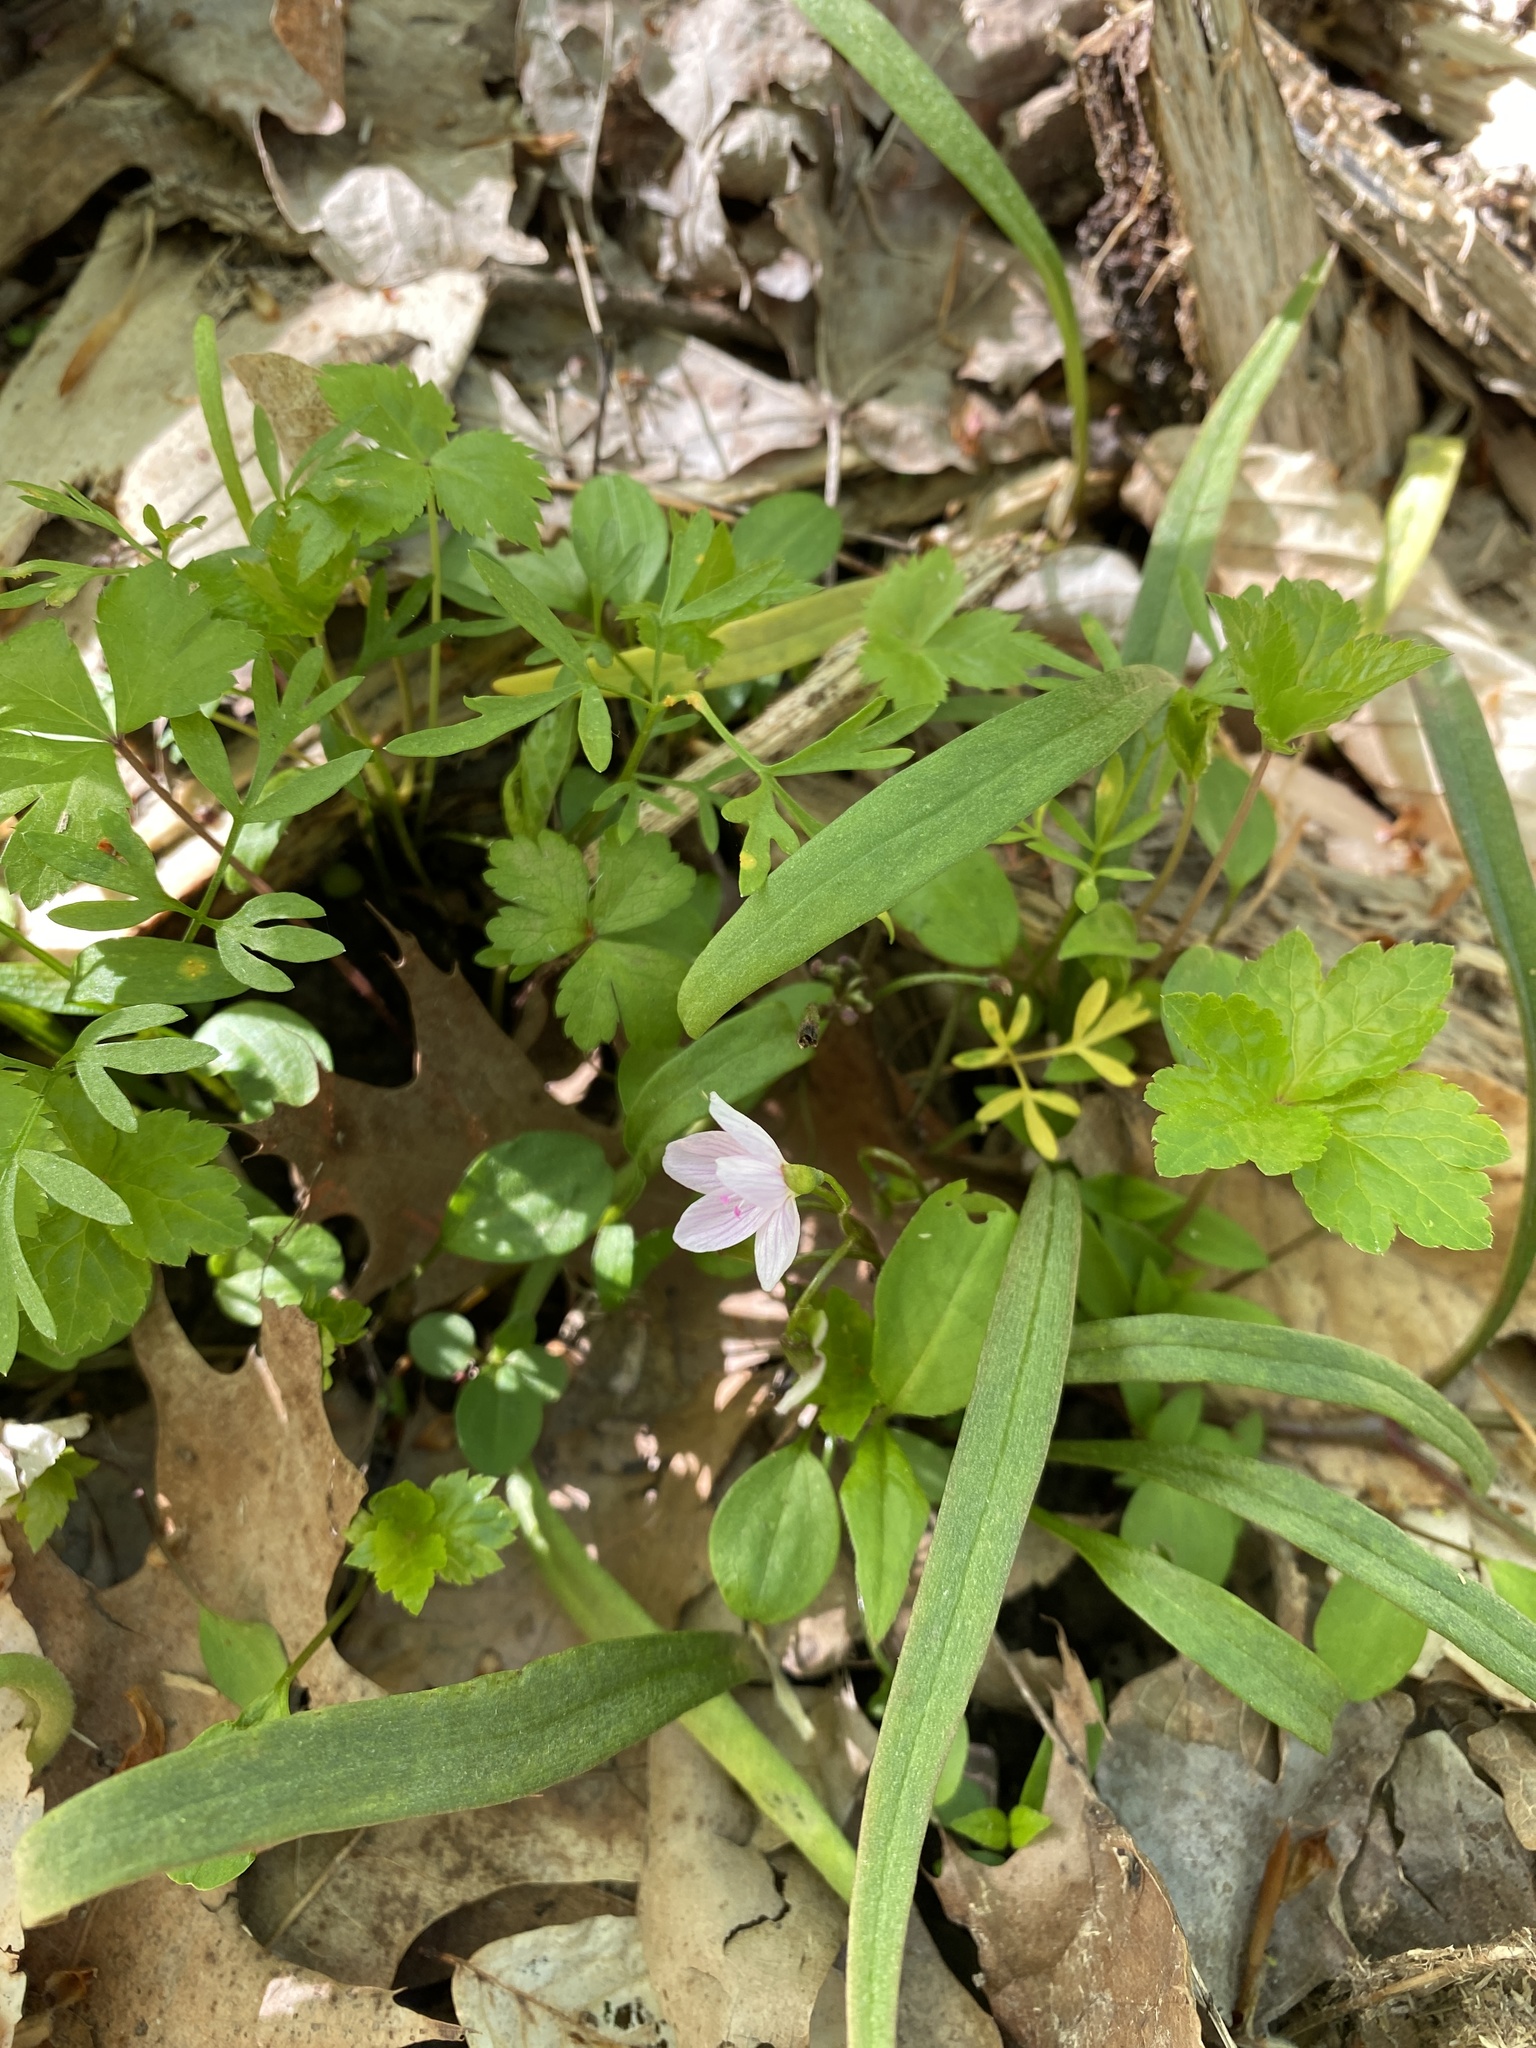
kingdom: Plantae
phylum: Tracheophyta
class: Magnoliopsida
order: Caryophyllales
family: Montiaceae
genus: Claytonia
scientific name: Claytonia virginica
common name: Virginia springbeauty
